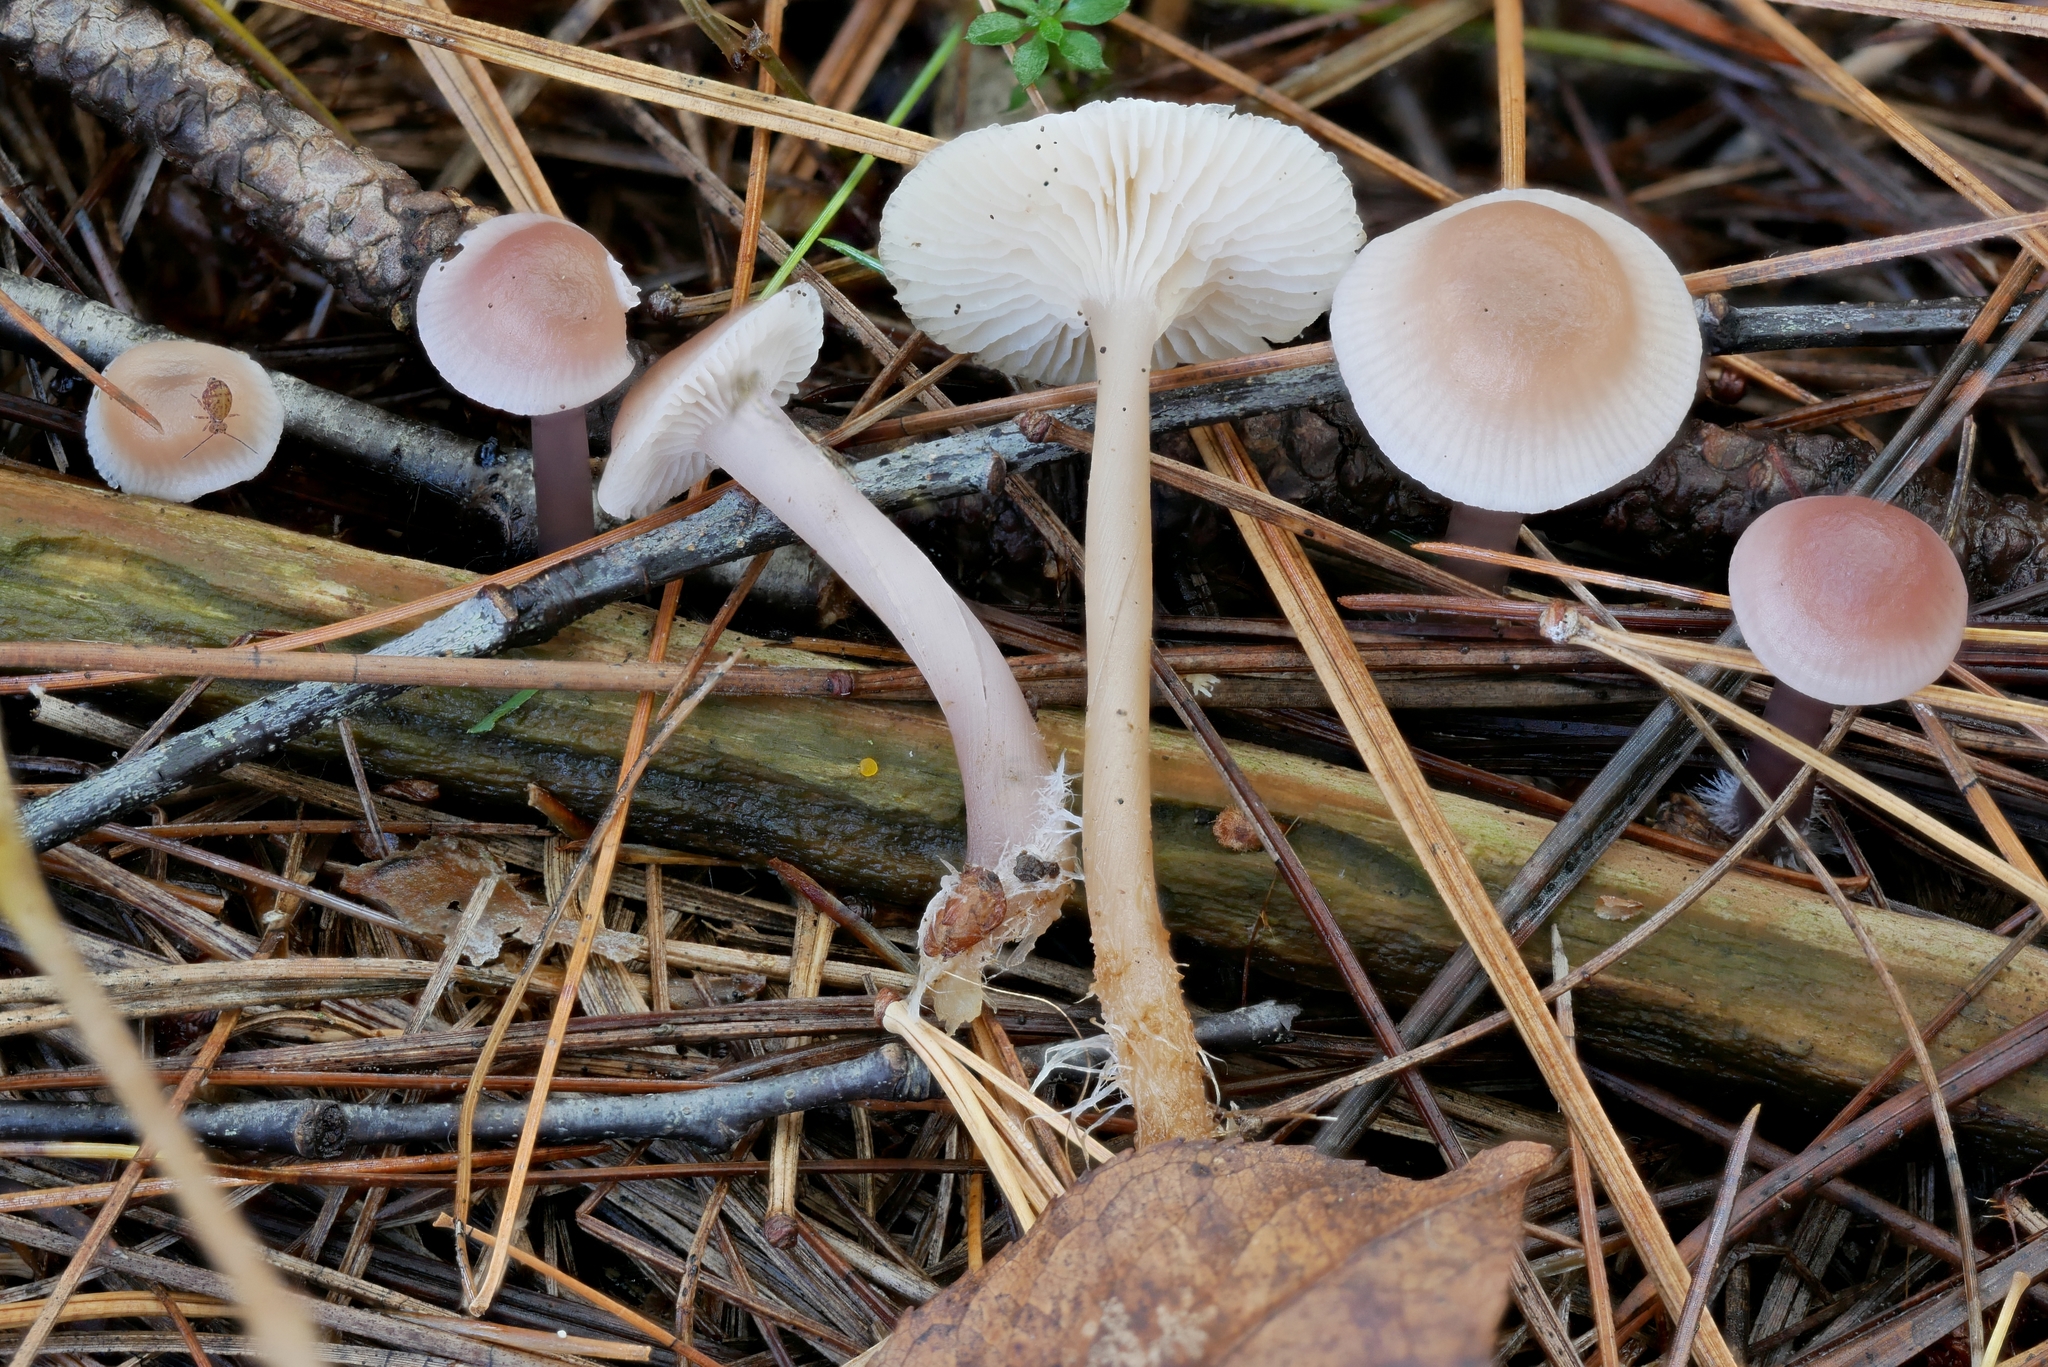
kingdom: Fungi
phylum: Basidiomycota
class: Agaricomycetes
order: Agaricales
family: Mycenaceae
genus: Mycena
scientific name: Mycena pearsoniana
